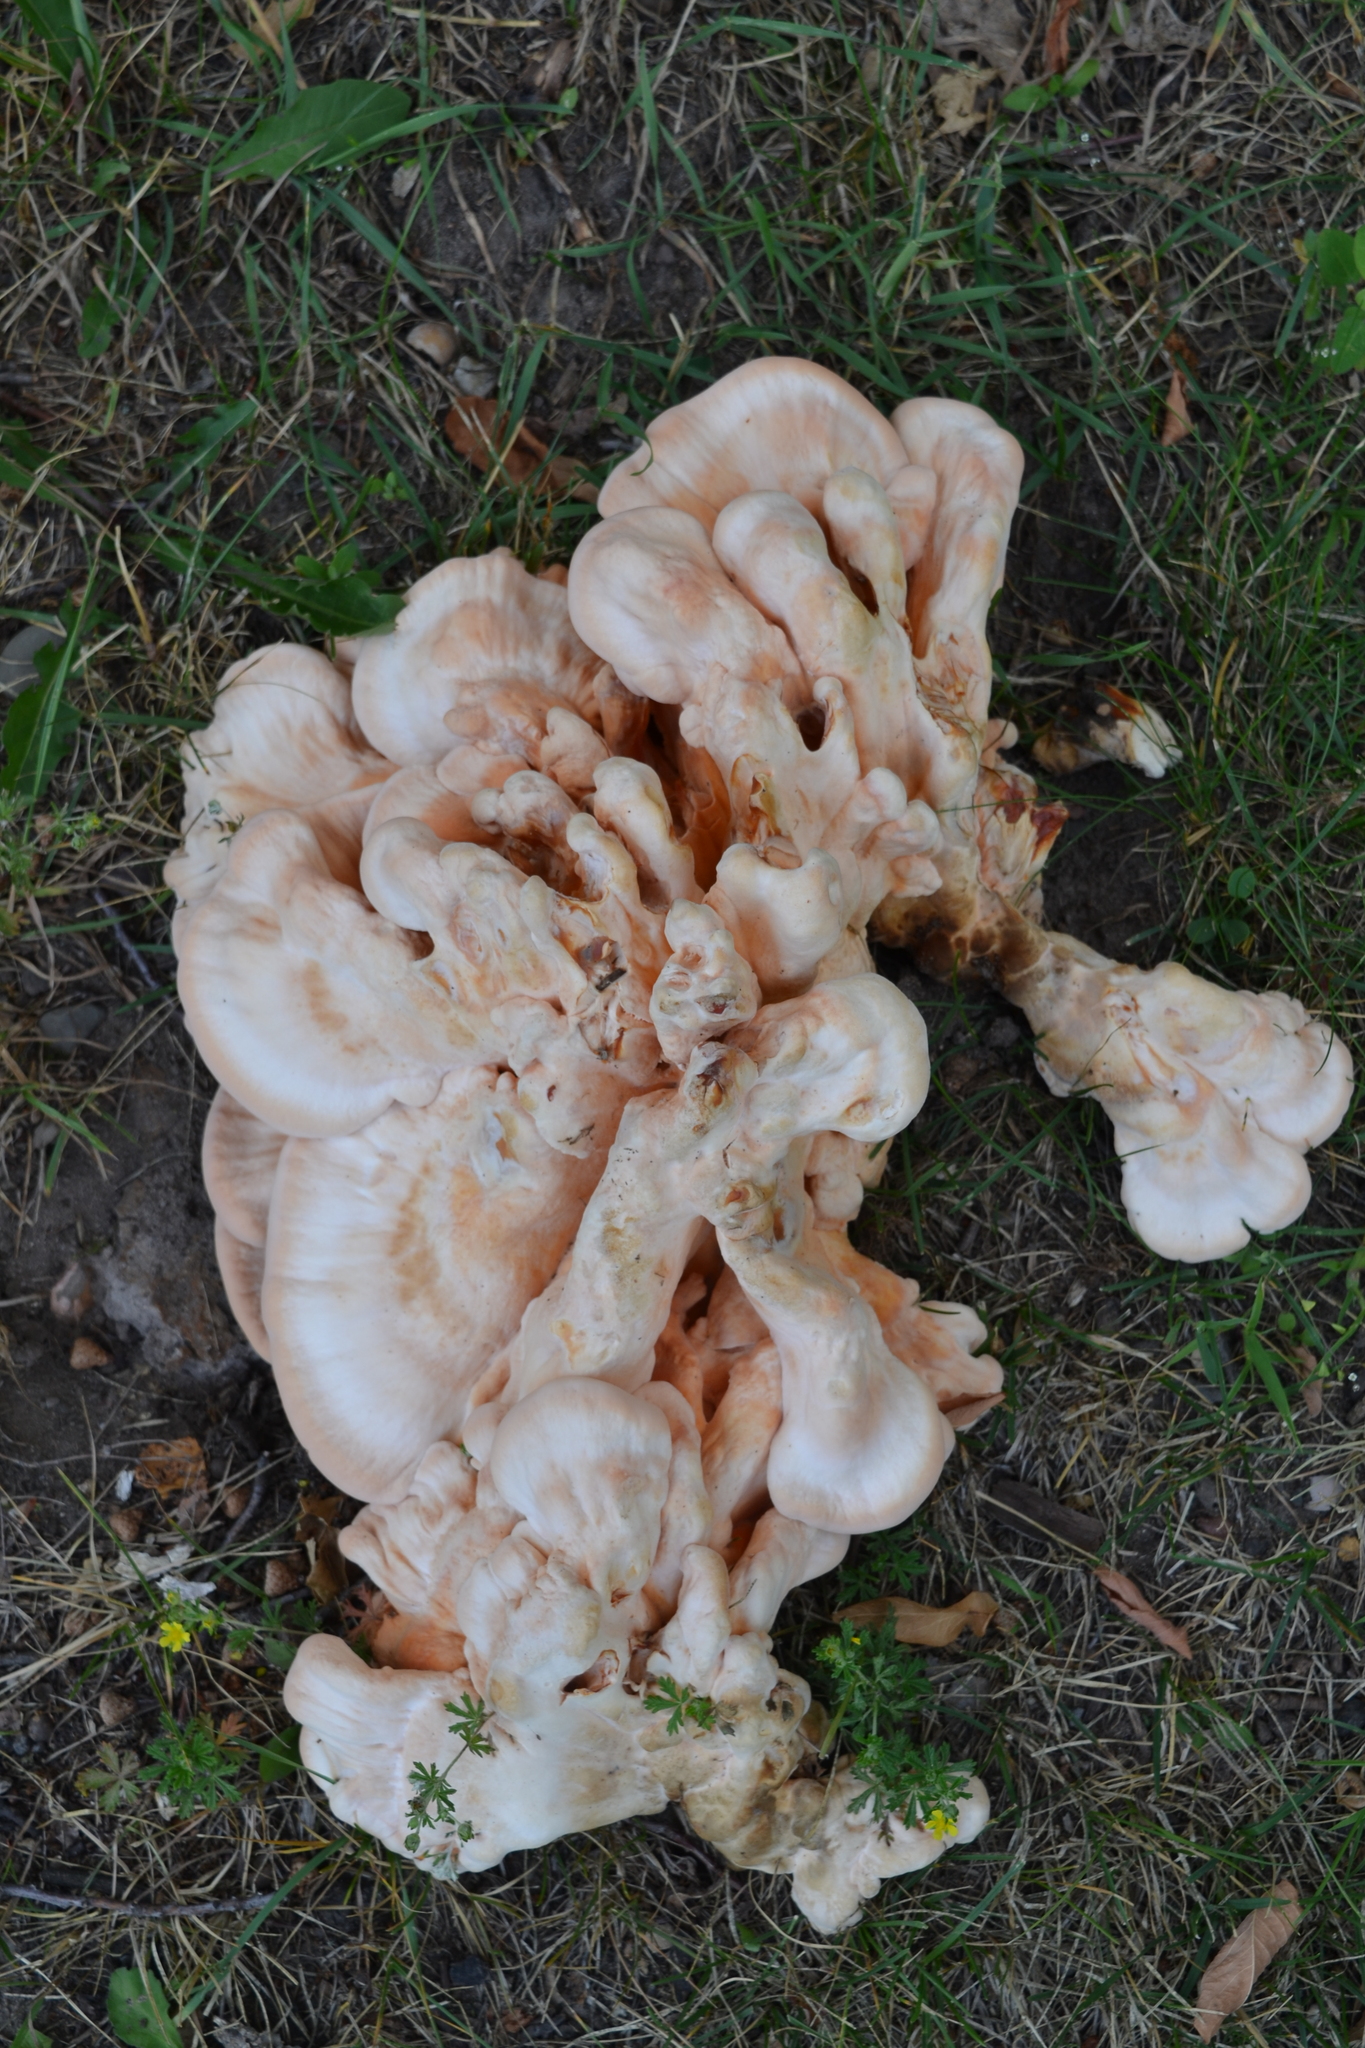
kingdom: Fungi
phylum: Basidiomycota
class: Agaricomycetes
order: Polyporales
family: Laetiporaceae
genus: Laetiporus
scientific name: Laetiporus sulphureus
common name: Chicken of the woods
